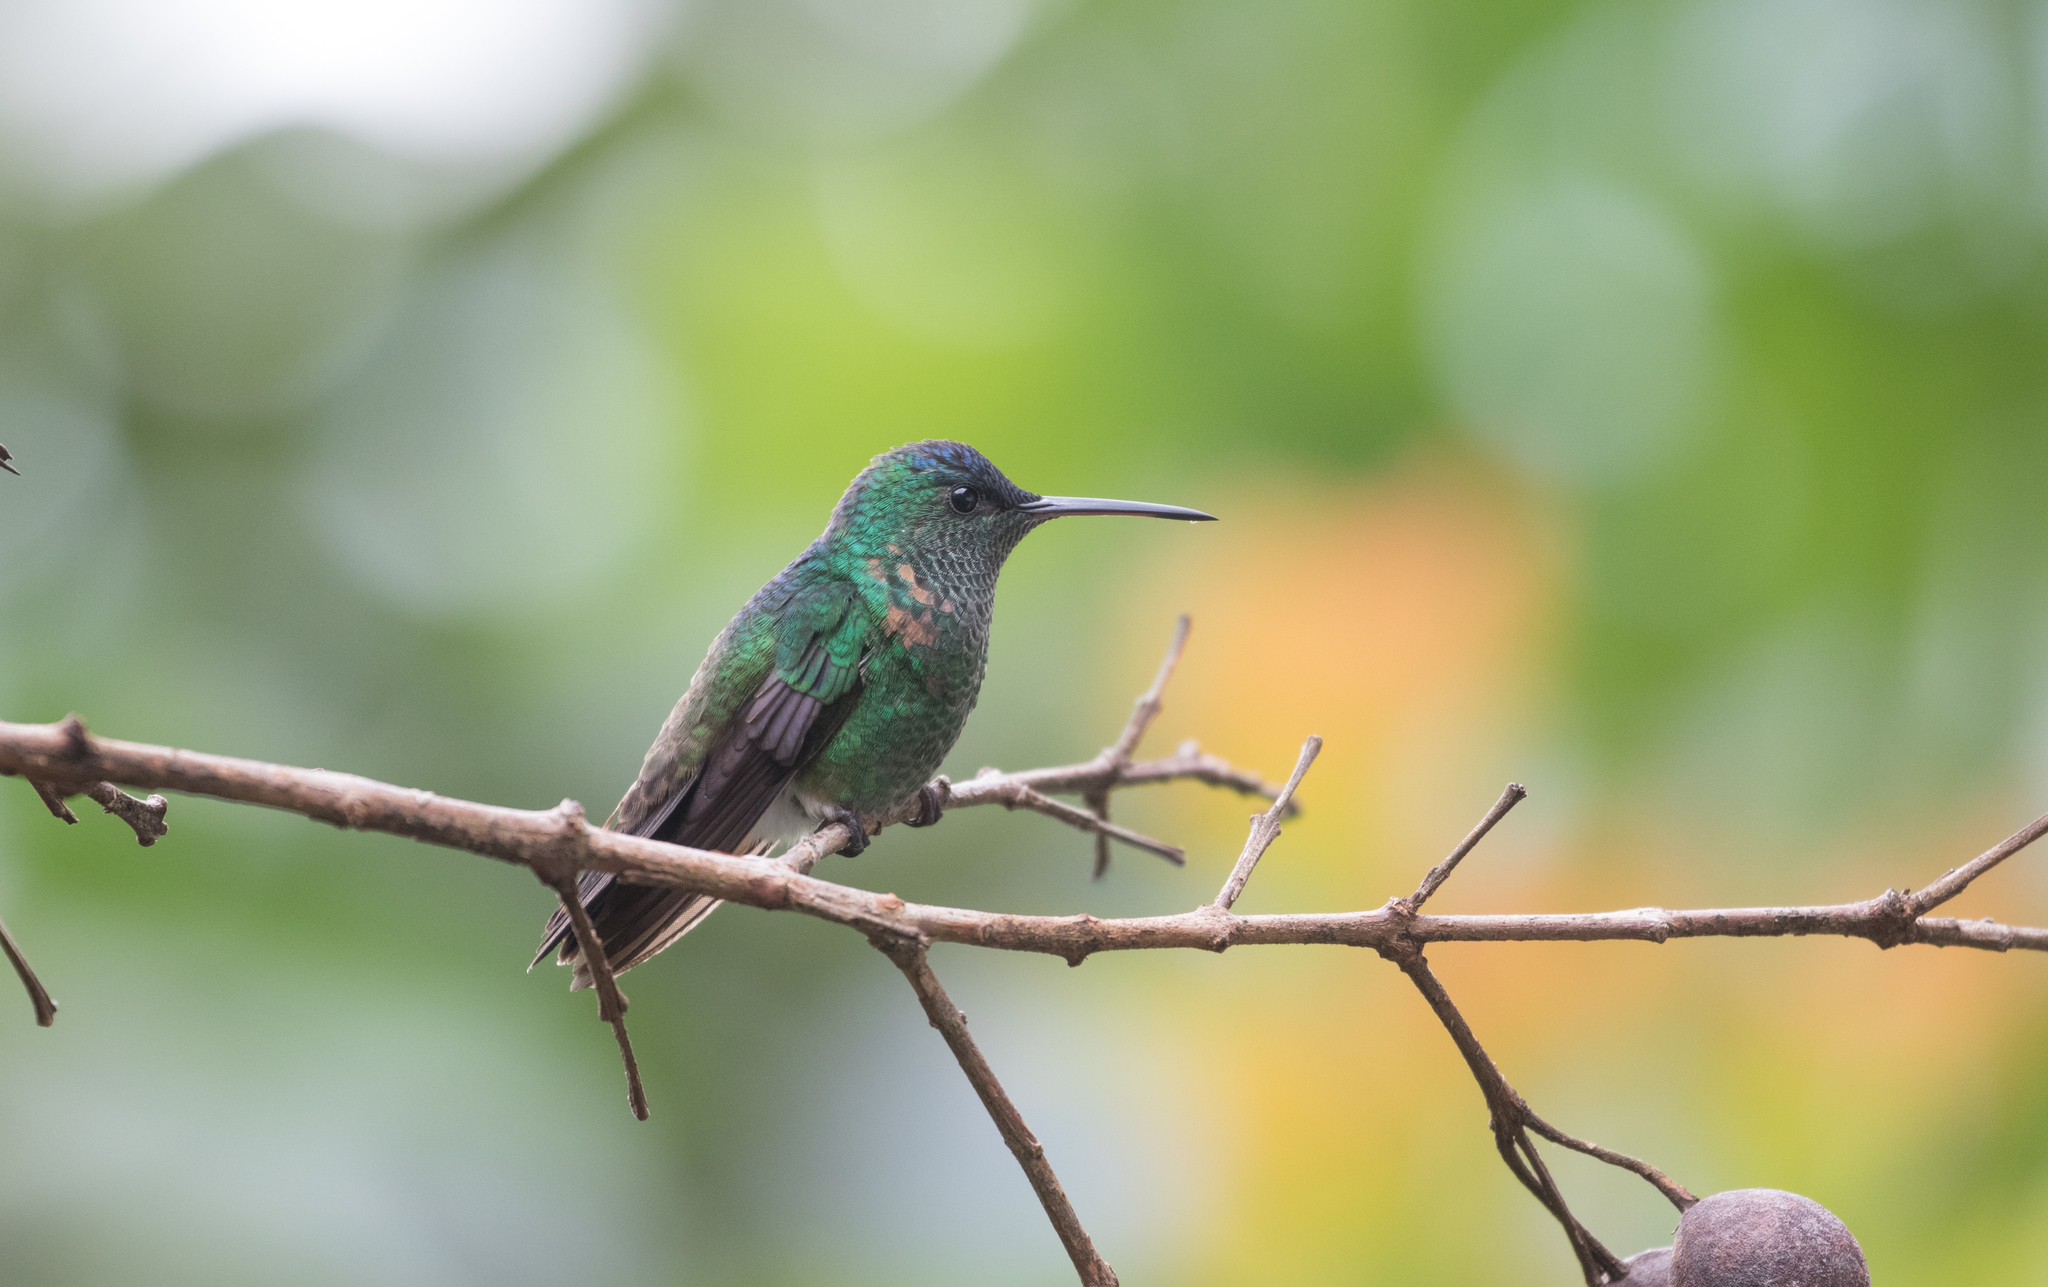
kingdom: Animalia
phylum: Chordata
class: Aves
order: Apodiformes
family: Trochilidae
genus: Saucerottia
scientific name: Saucerottia cyanifrons
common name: Indigo-capped hummingbird
